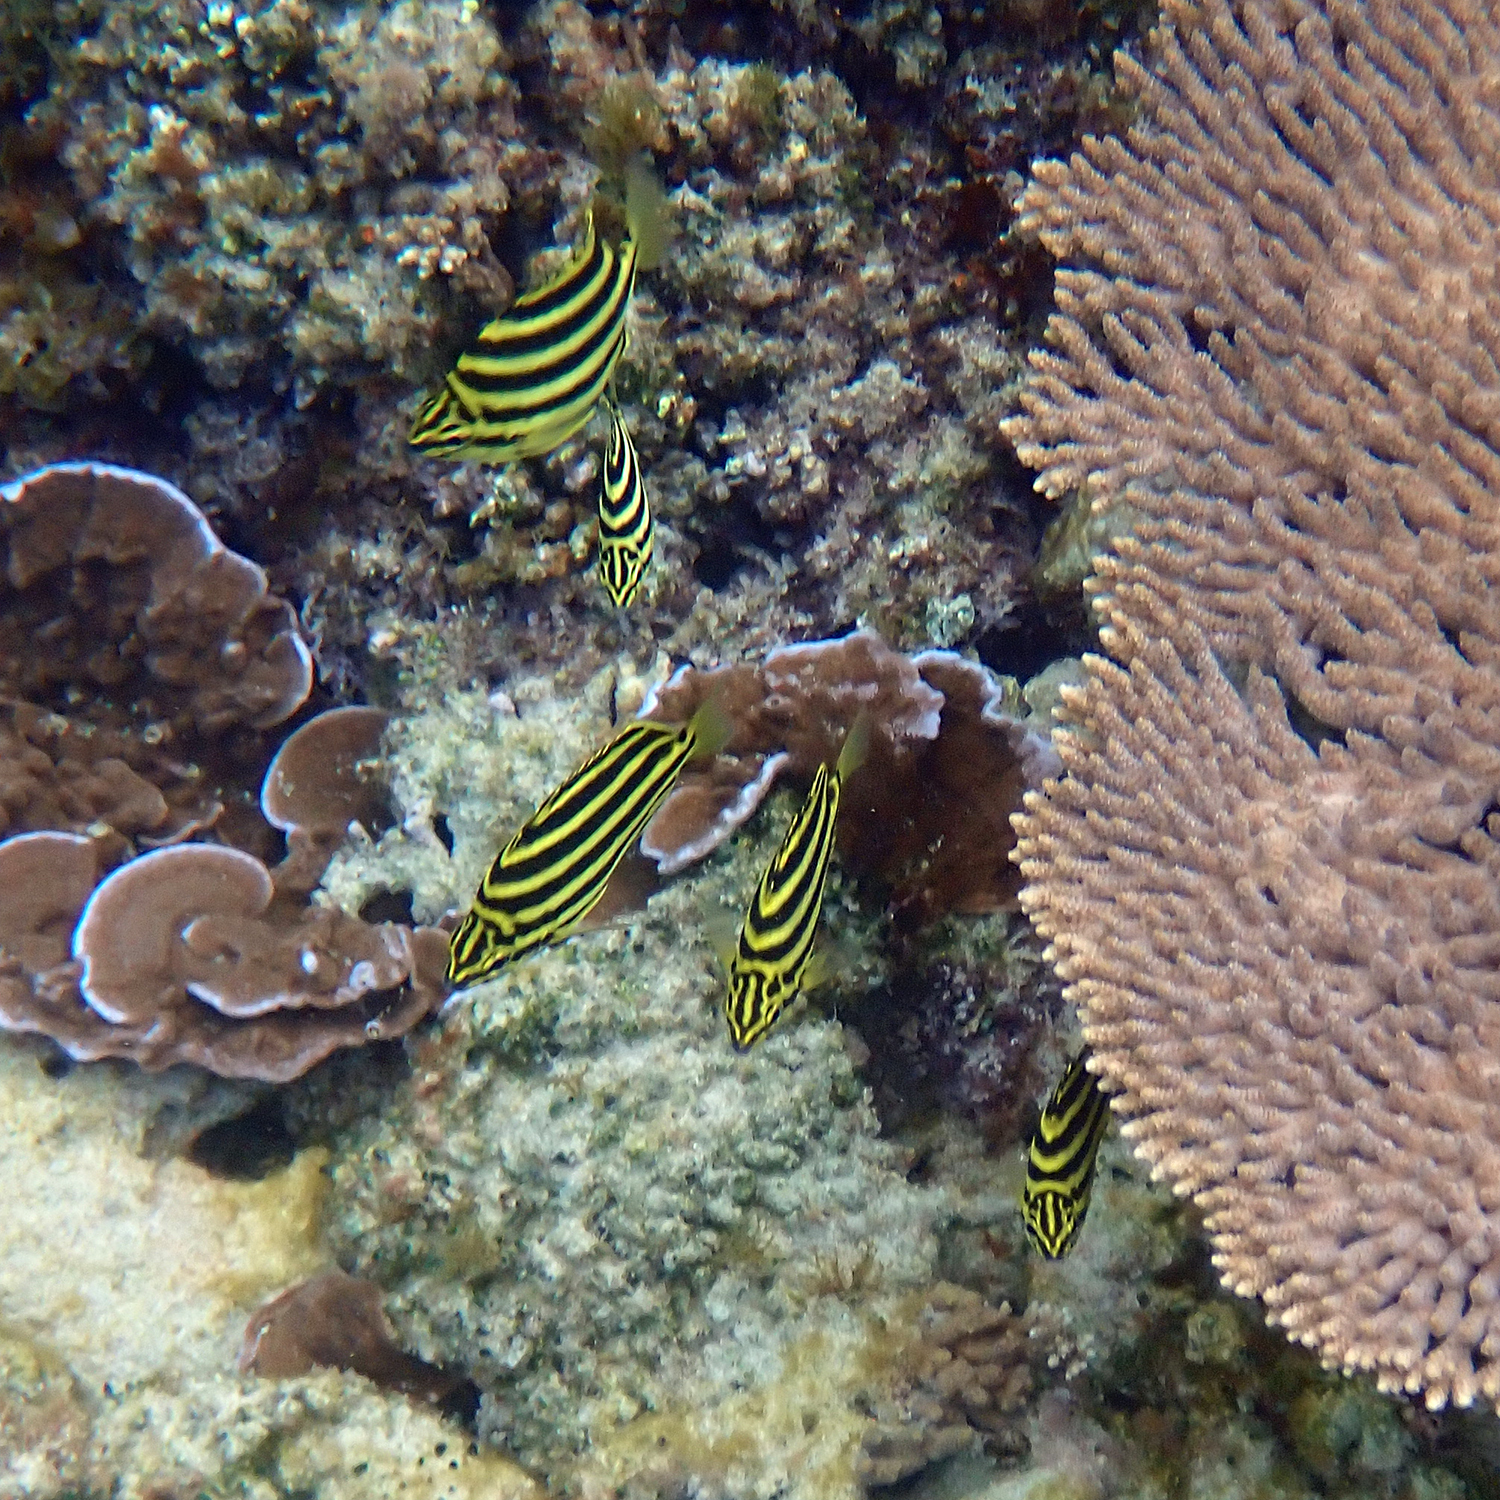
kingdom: Animalia
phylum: Chordata
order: Perciformes
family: Kyphosidae
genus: Microcanthus
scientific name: Microcanthus joyceae
